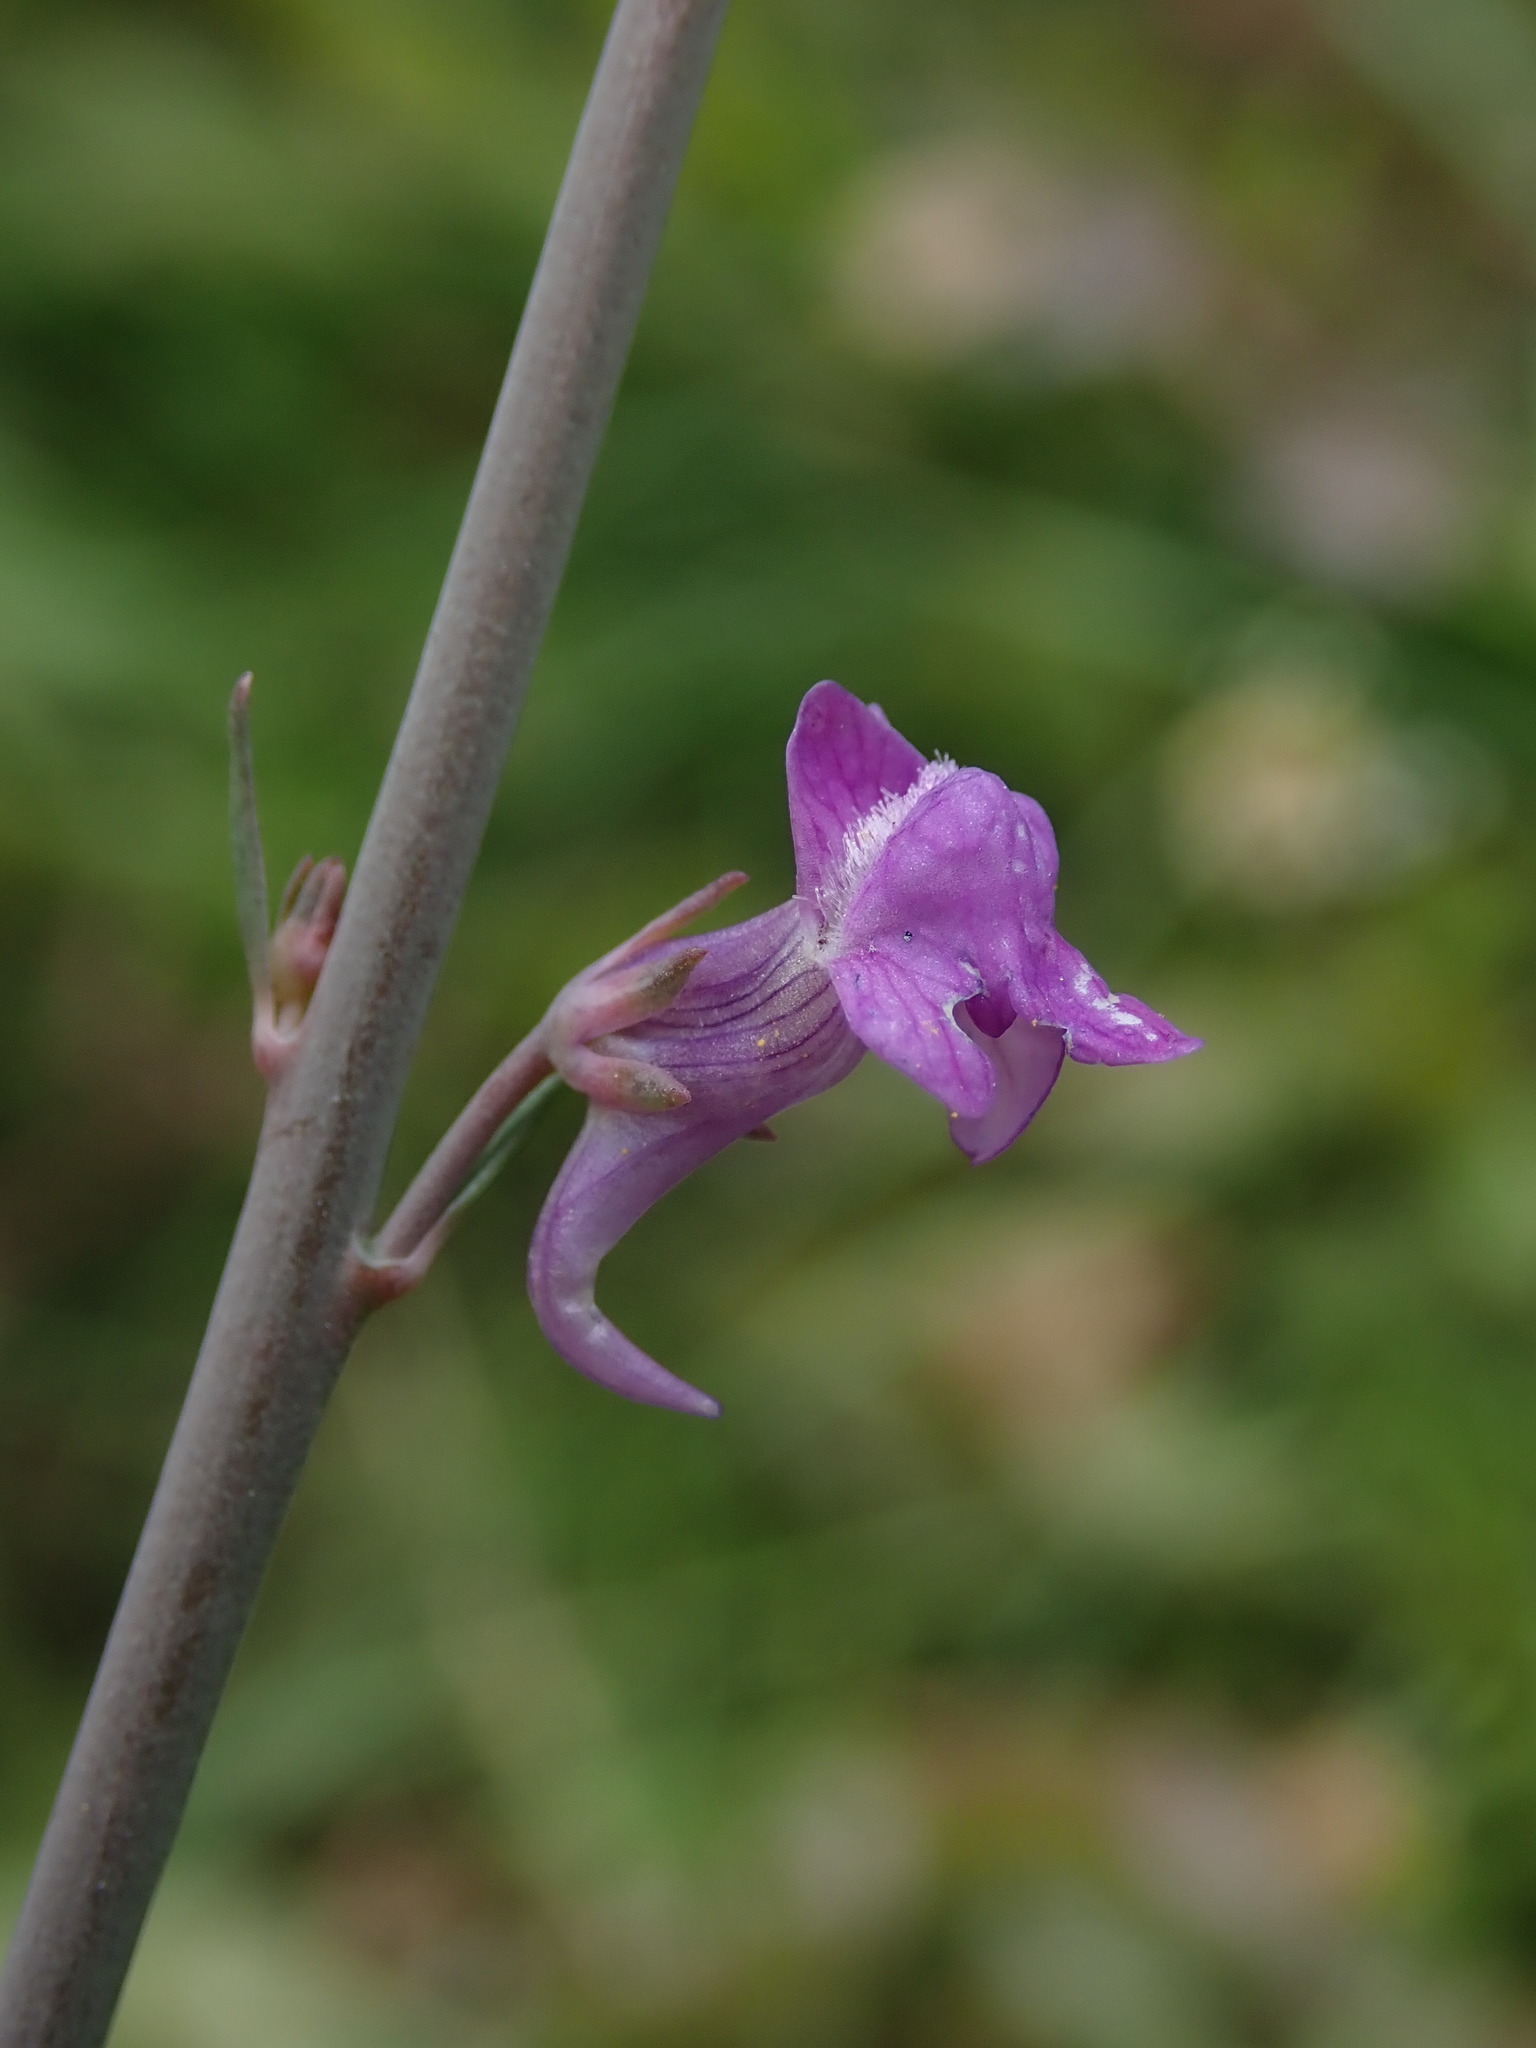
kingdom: Plantae
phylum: Tracheophyta
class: Magnoliopsida
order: Lamiales
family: Plantaginaceae
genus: Linaria
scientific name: Linaria purpurea
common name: Purple toadflax
